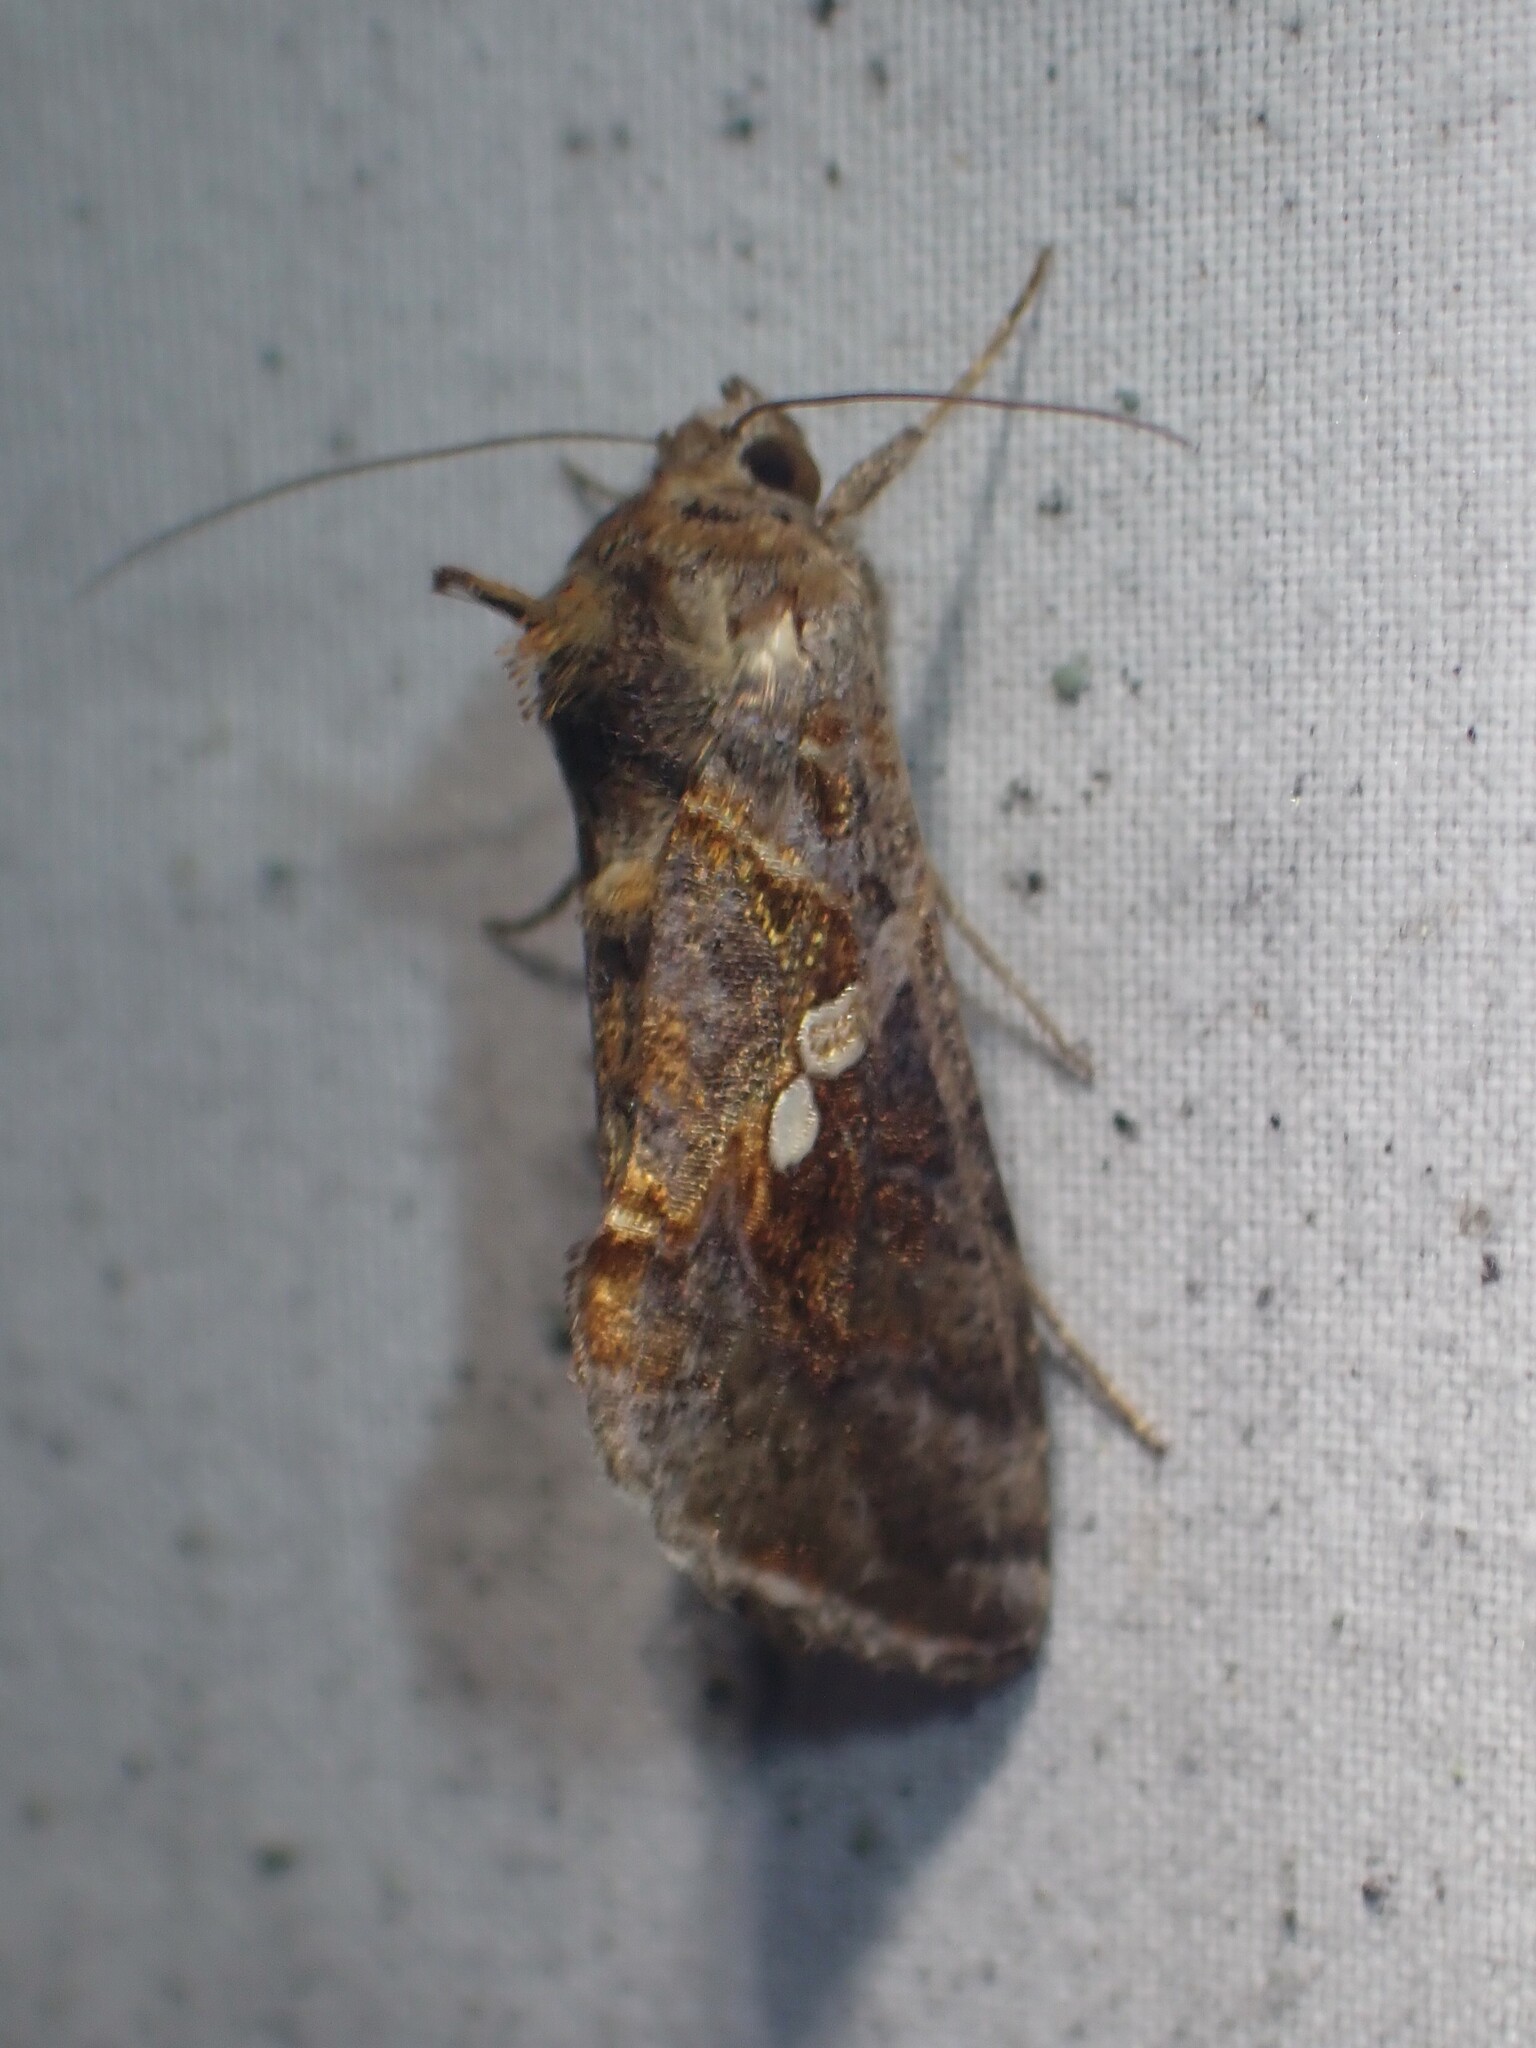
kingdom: Animalia
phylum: Arthropoda
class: Insecta
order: Lepidoptera
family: Noctuidae
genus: Chrysodeixis
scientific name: Chrysodeixis includens
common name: Cutworm moth
